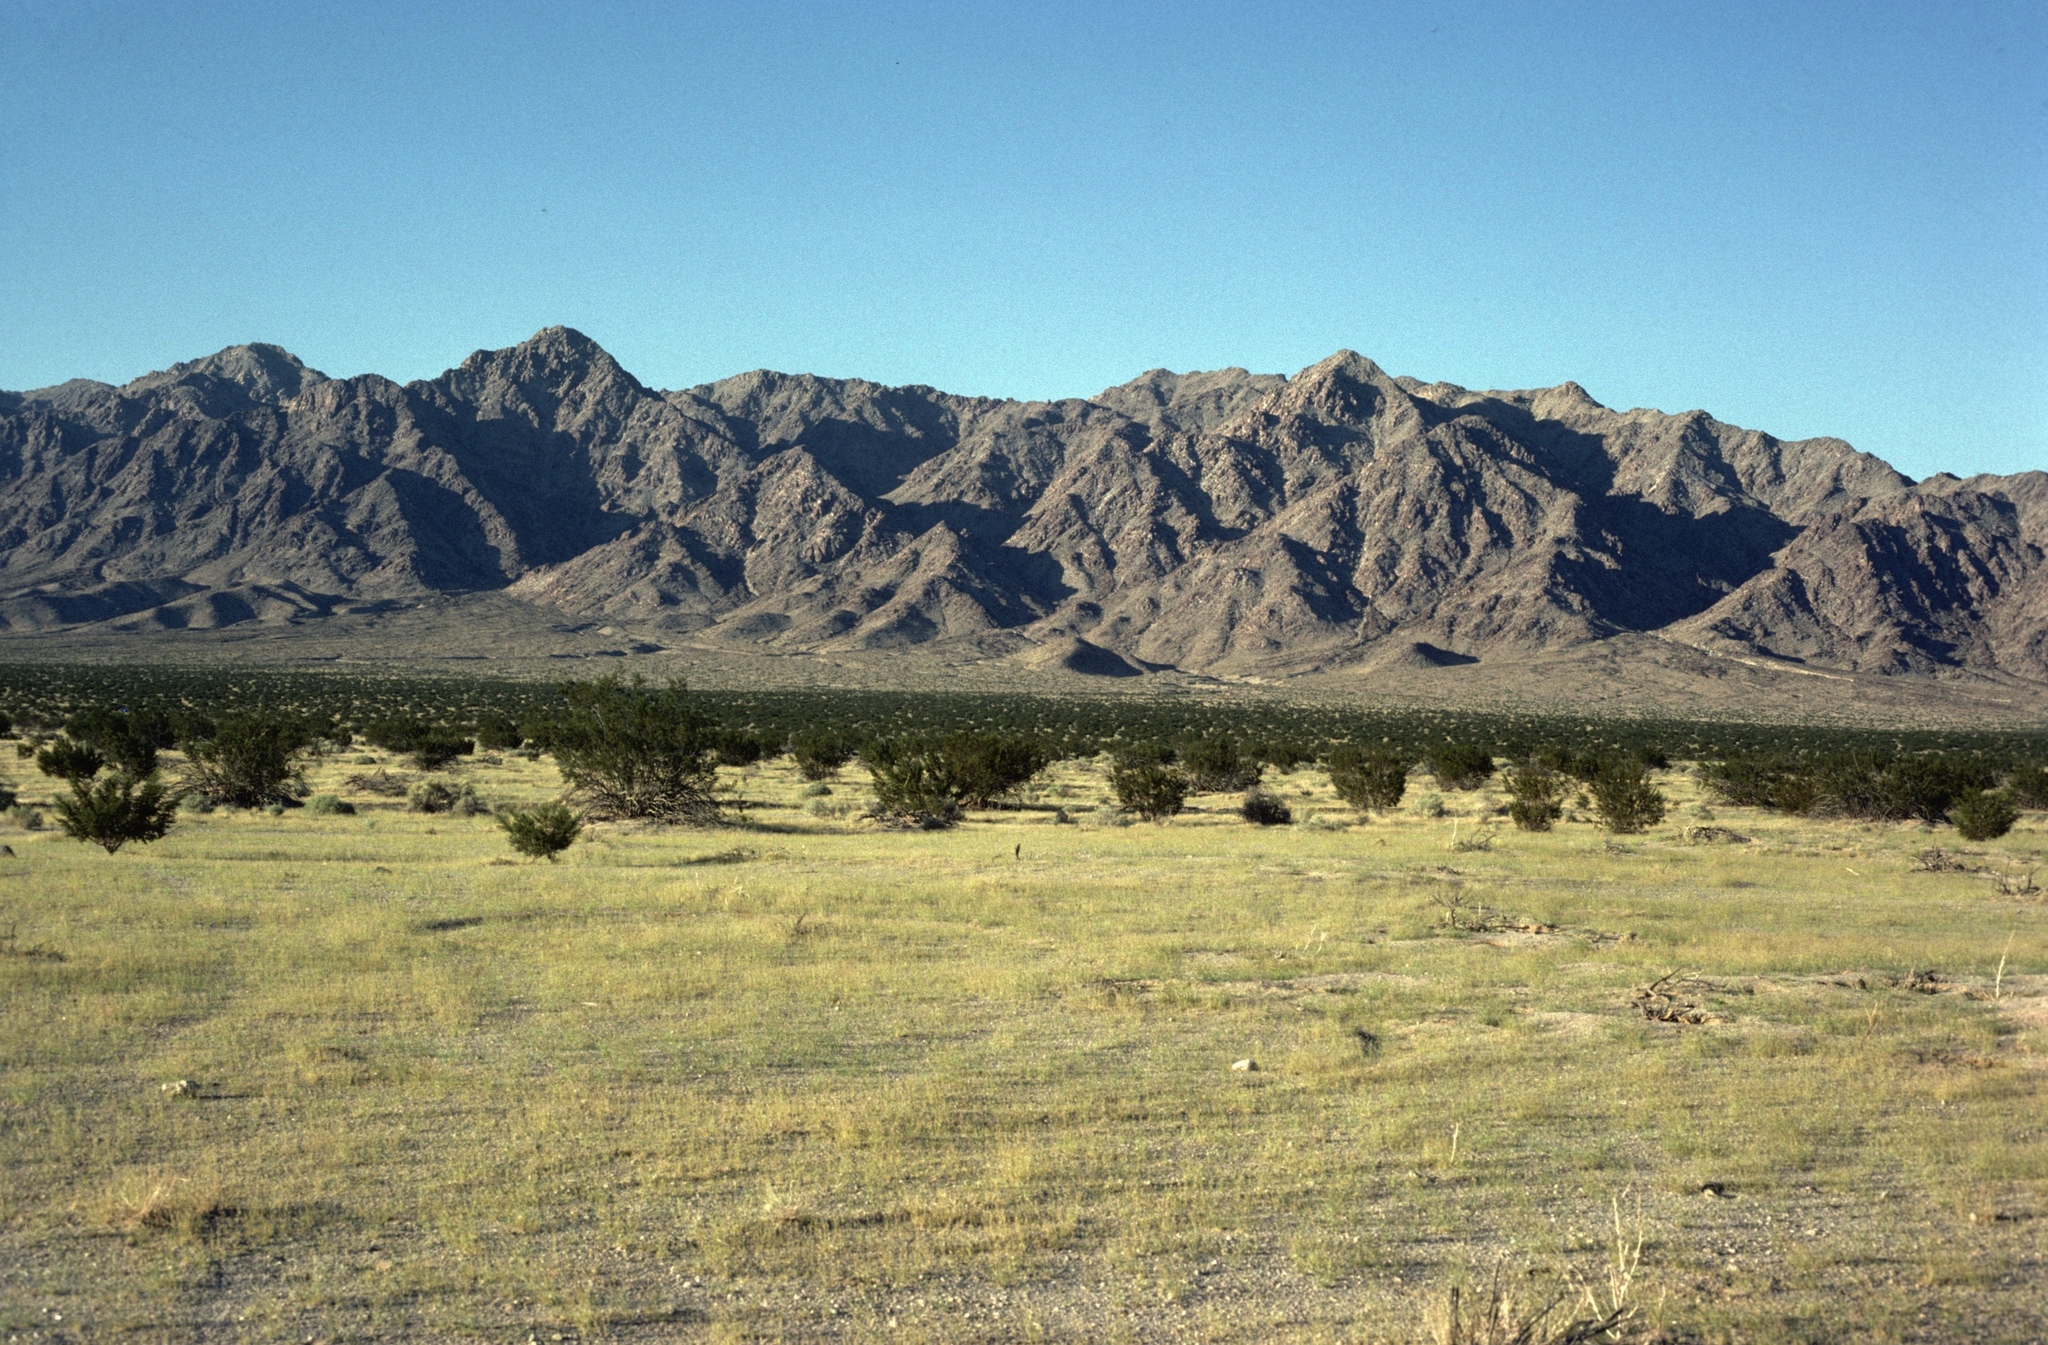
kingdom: Plantae
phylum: Tracheophyta
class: Magnoliopsida
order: Asterales
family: Asteraceae
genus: Pectis
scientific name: Pectis papposa
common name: Many-bristle chinchweed
